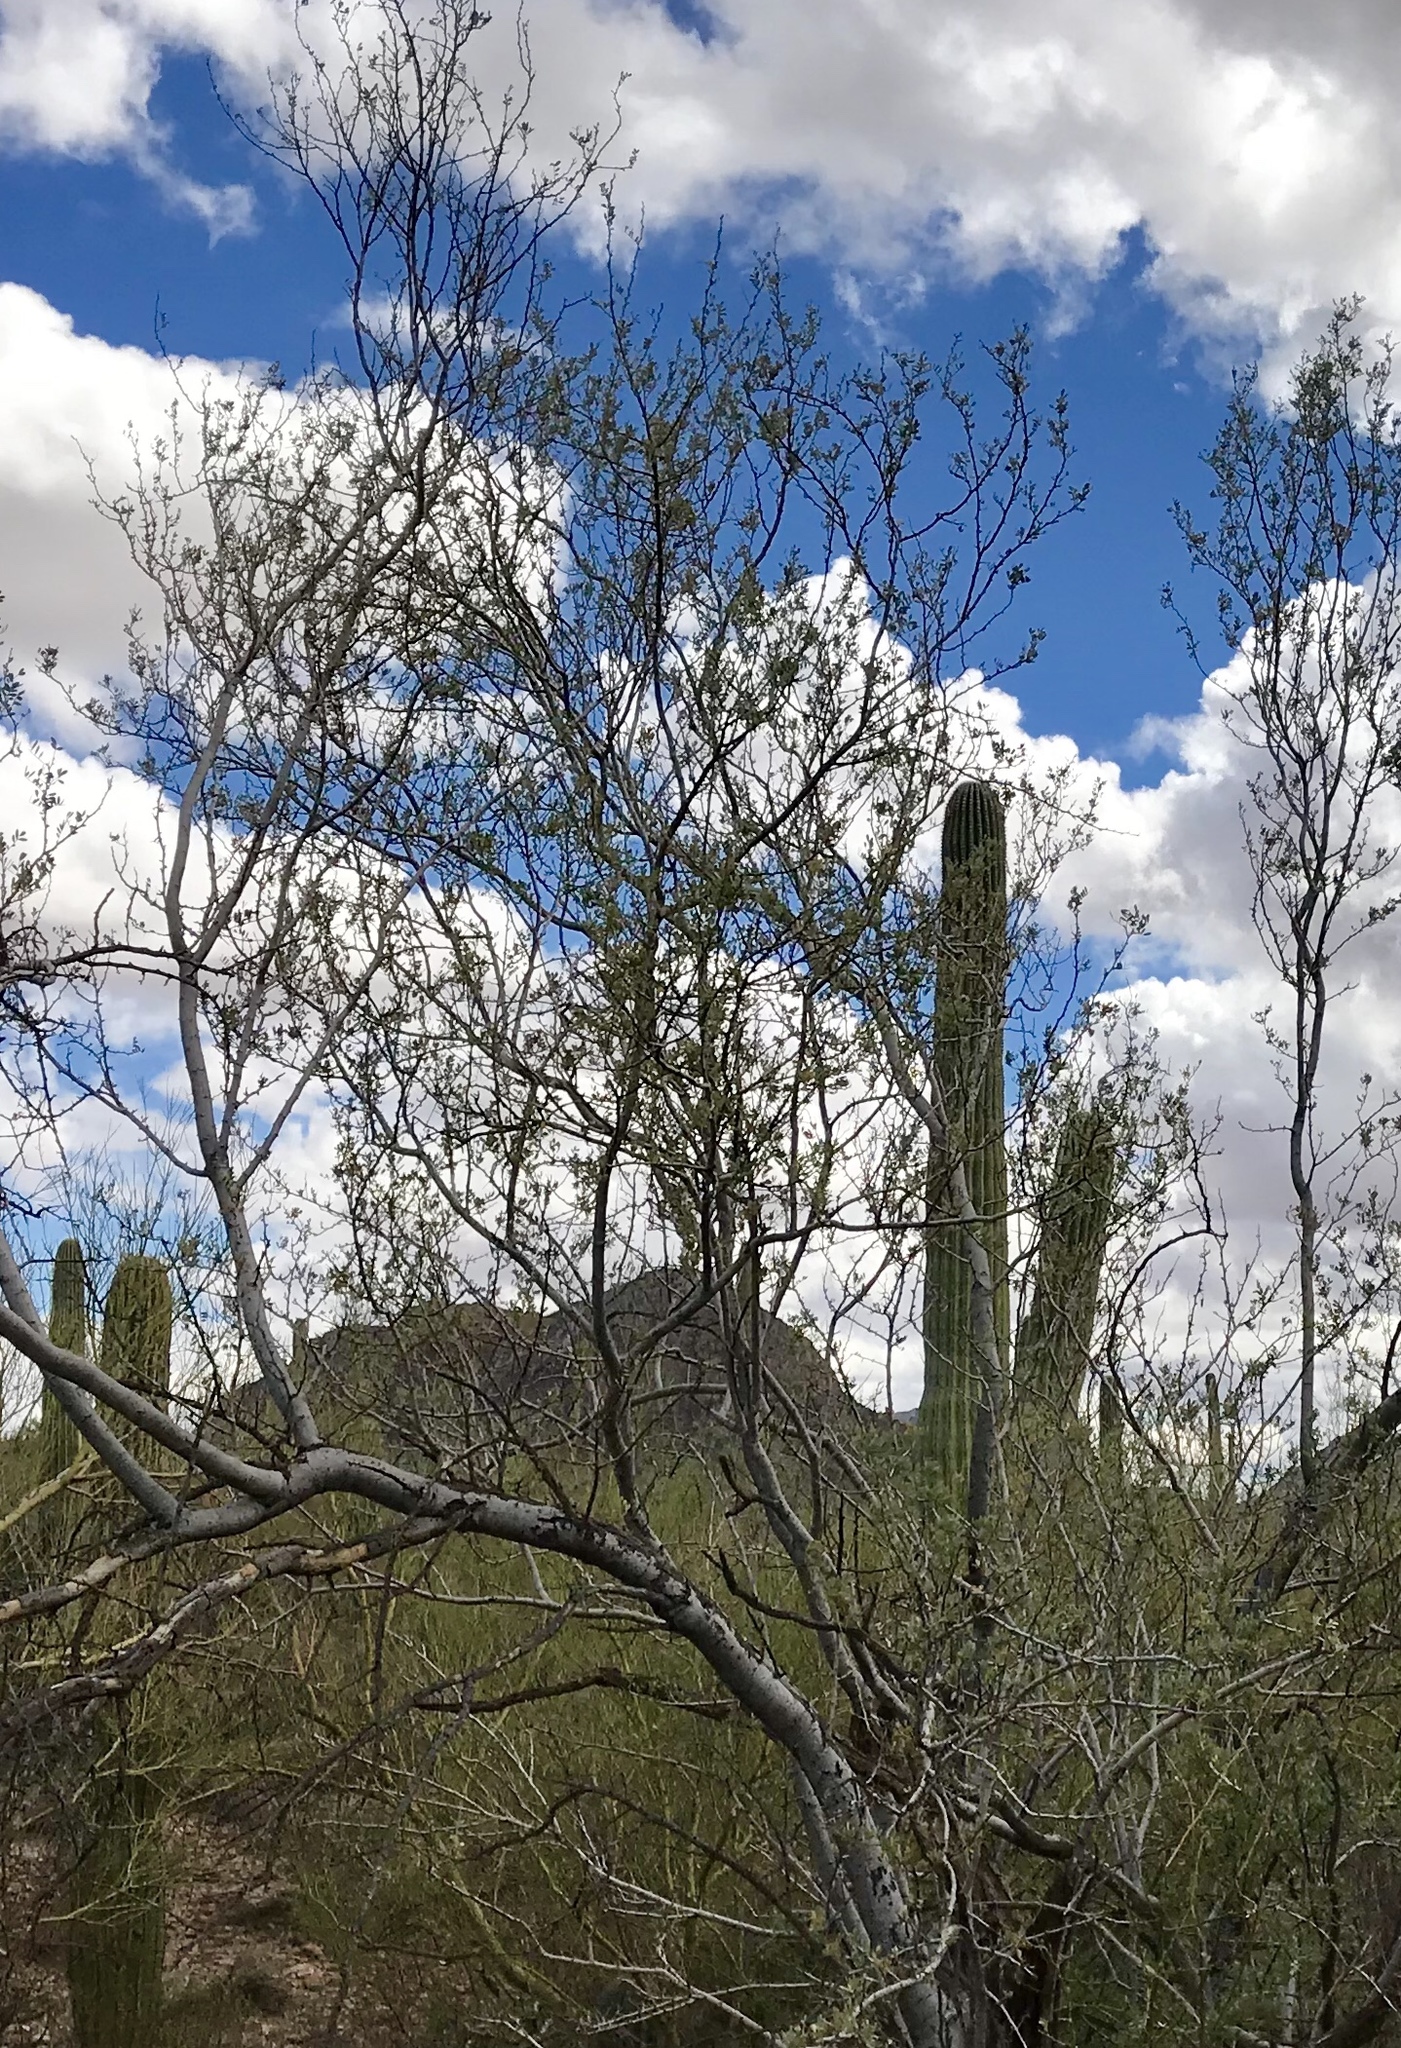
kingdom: Plantae
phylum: Tracheophyta
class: Magnoliopsida
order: Fabales
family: Fabaceae
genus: Olneya
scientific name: Olneya tesota
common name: Desert ironwood
